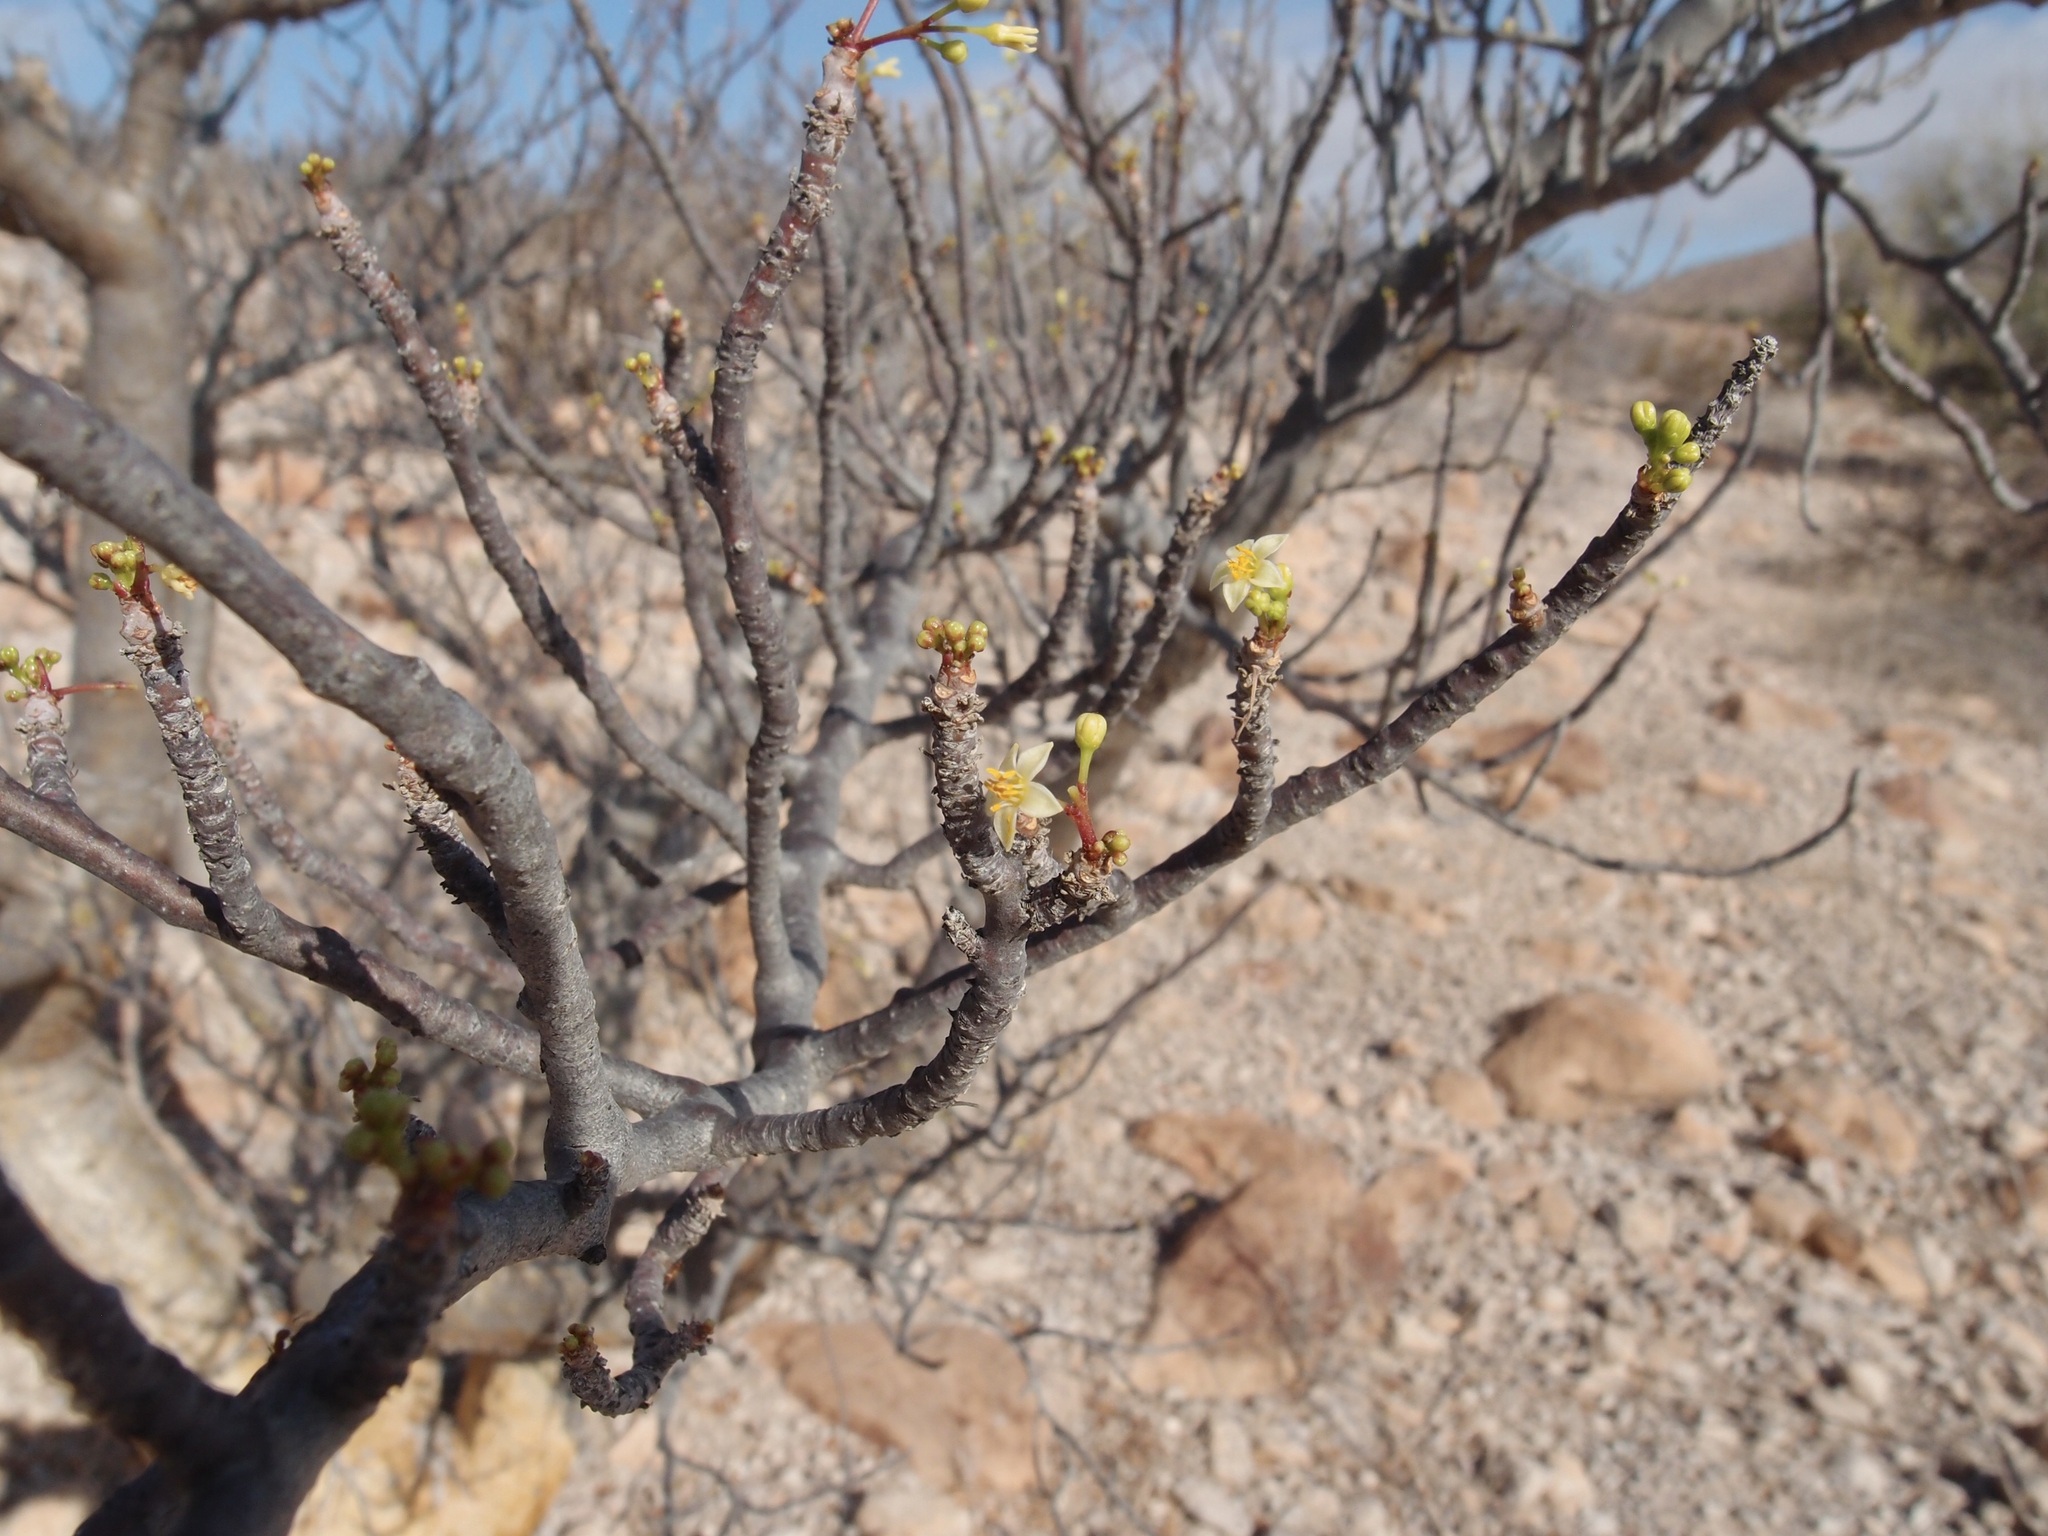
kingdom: Plantae
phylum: Tracheophyta
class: Magnoliopsida
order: Sapindales
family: Burseraceae
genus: Bursera
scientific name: Bursera microphylla
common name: Elephant tree
